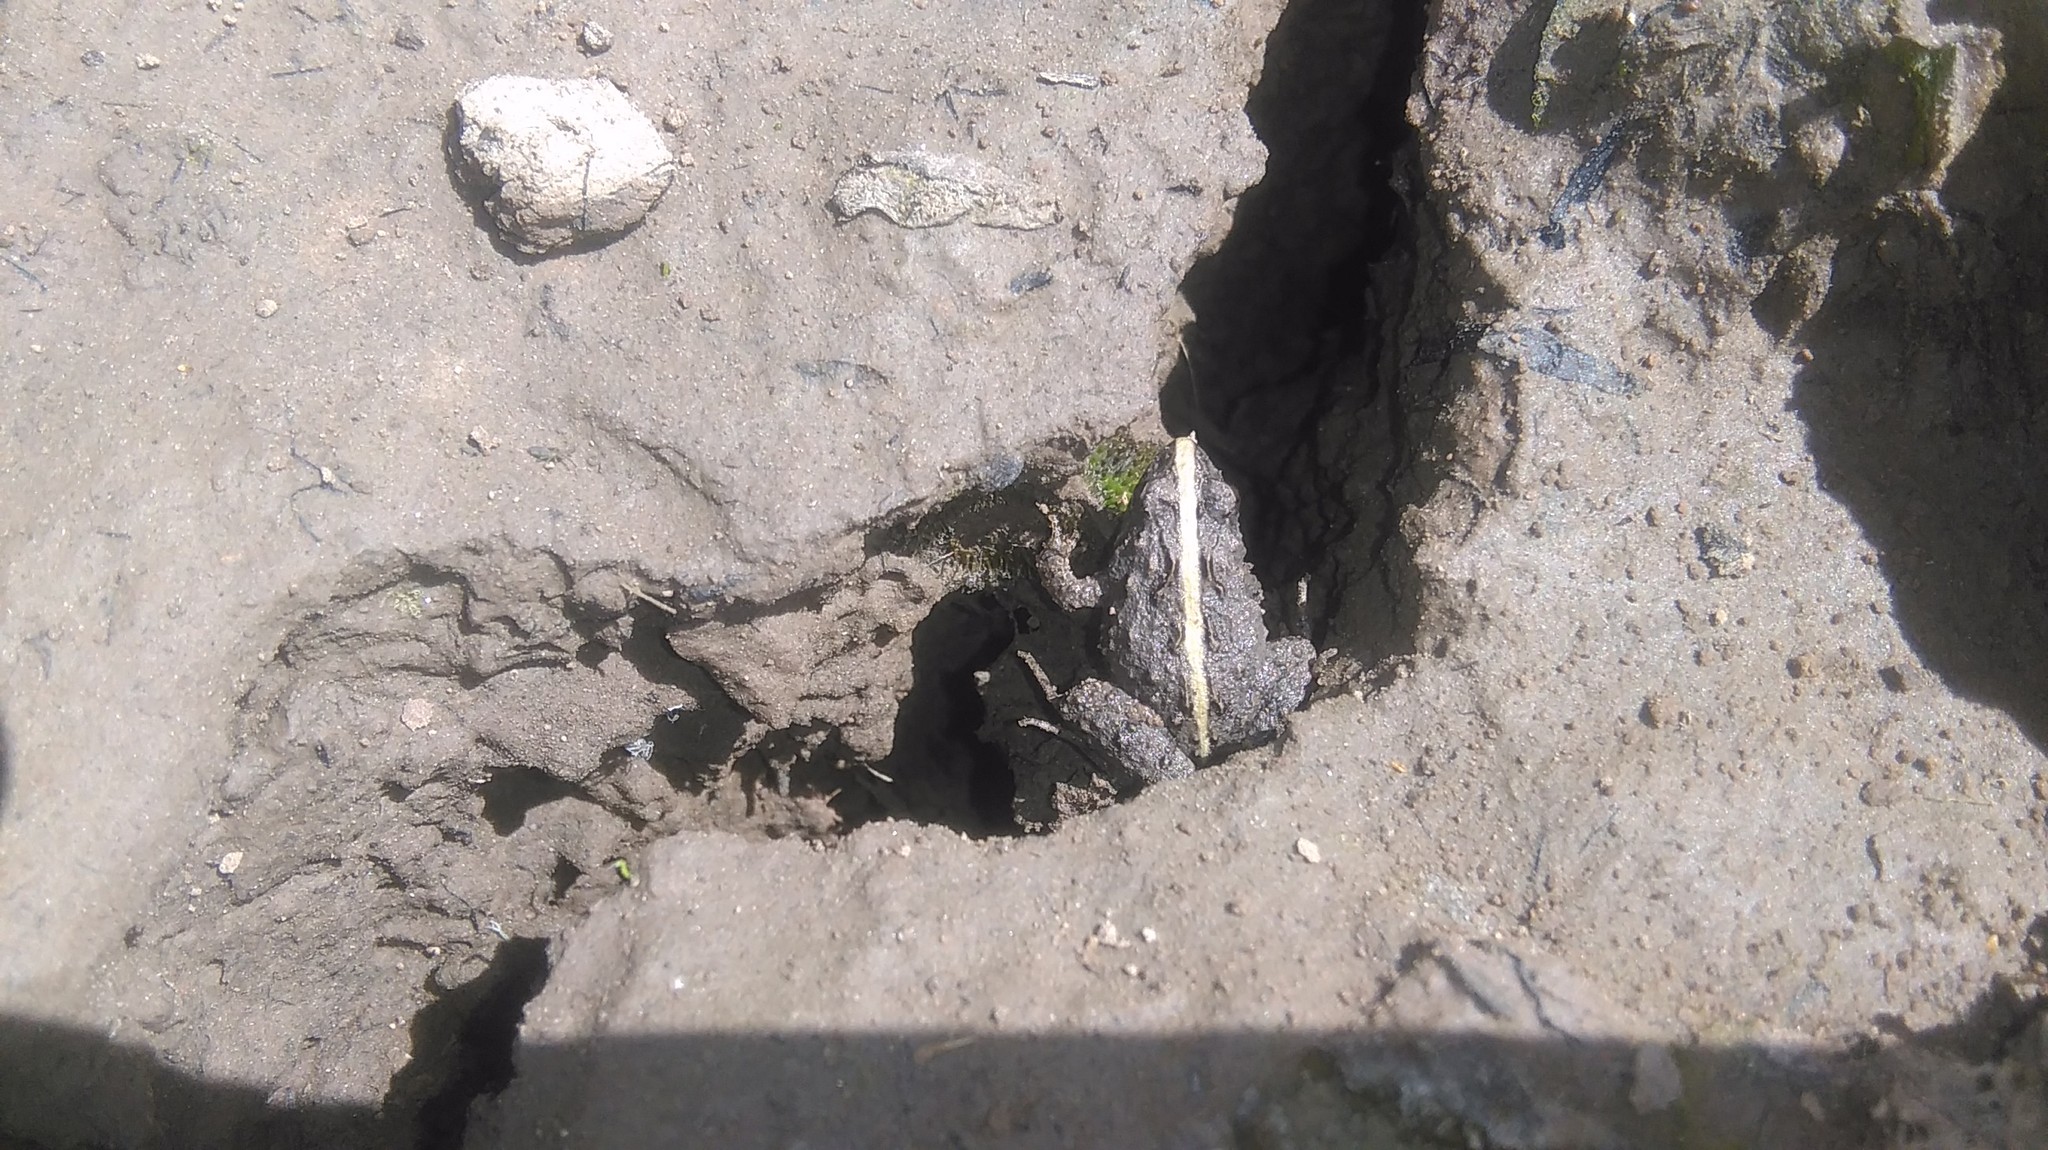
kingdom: Animalia
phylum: Chordata
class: Amphibia
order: Anura
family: Leptodactylidae
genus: Pseudopaludicola
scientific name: Pseudopaludicola falcipes
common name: Hensel’s swamp frog
